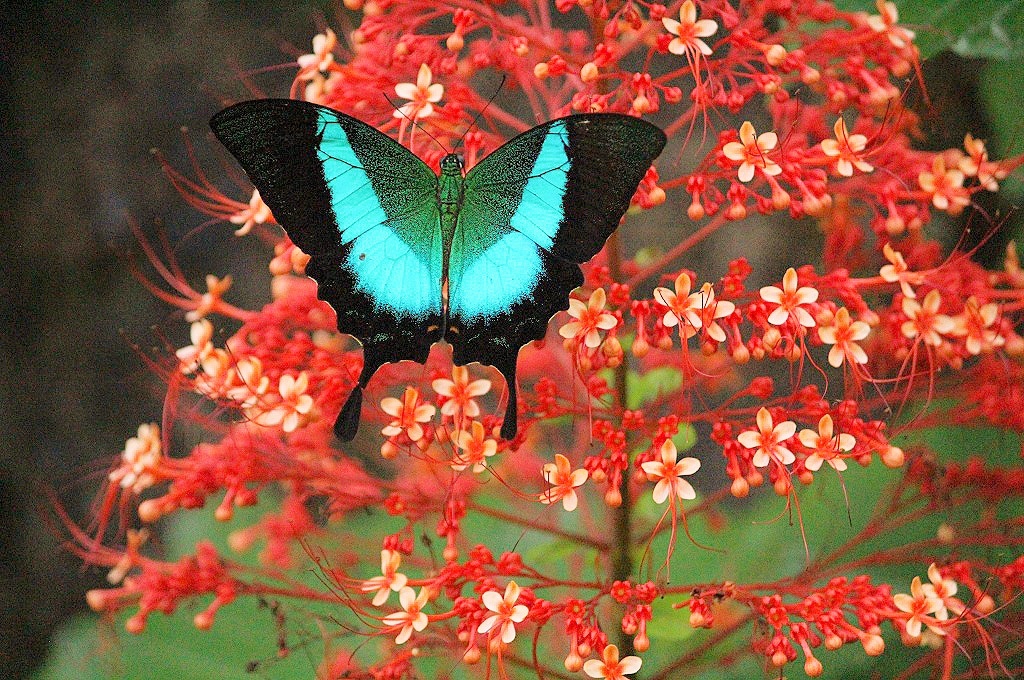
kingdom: Animalia
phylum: Arthropoda
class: Insecta
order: Lepidoptera
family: Papilionidae
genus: Papilio
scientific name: Papilio buddha
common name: Malabar banded peacock
